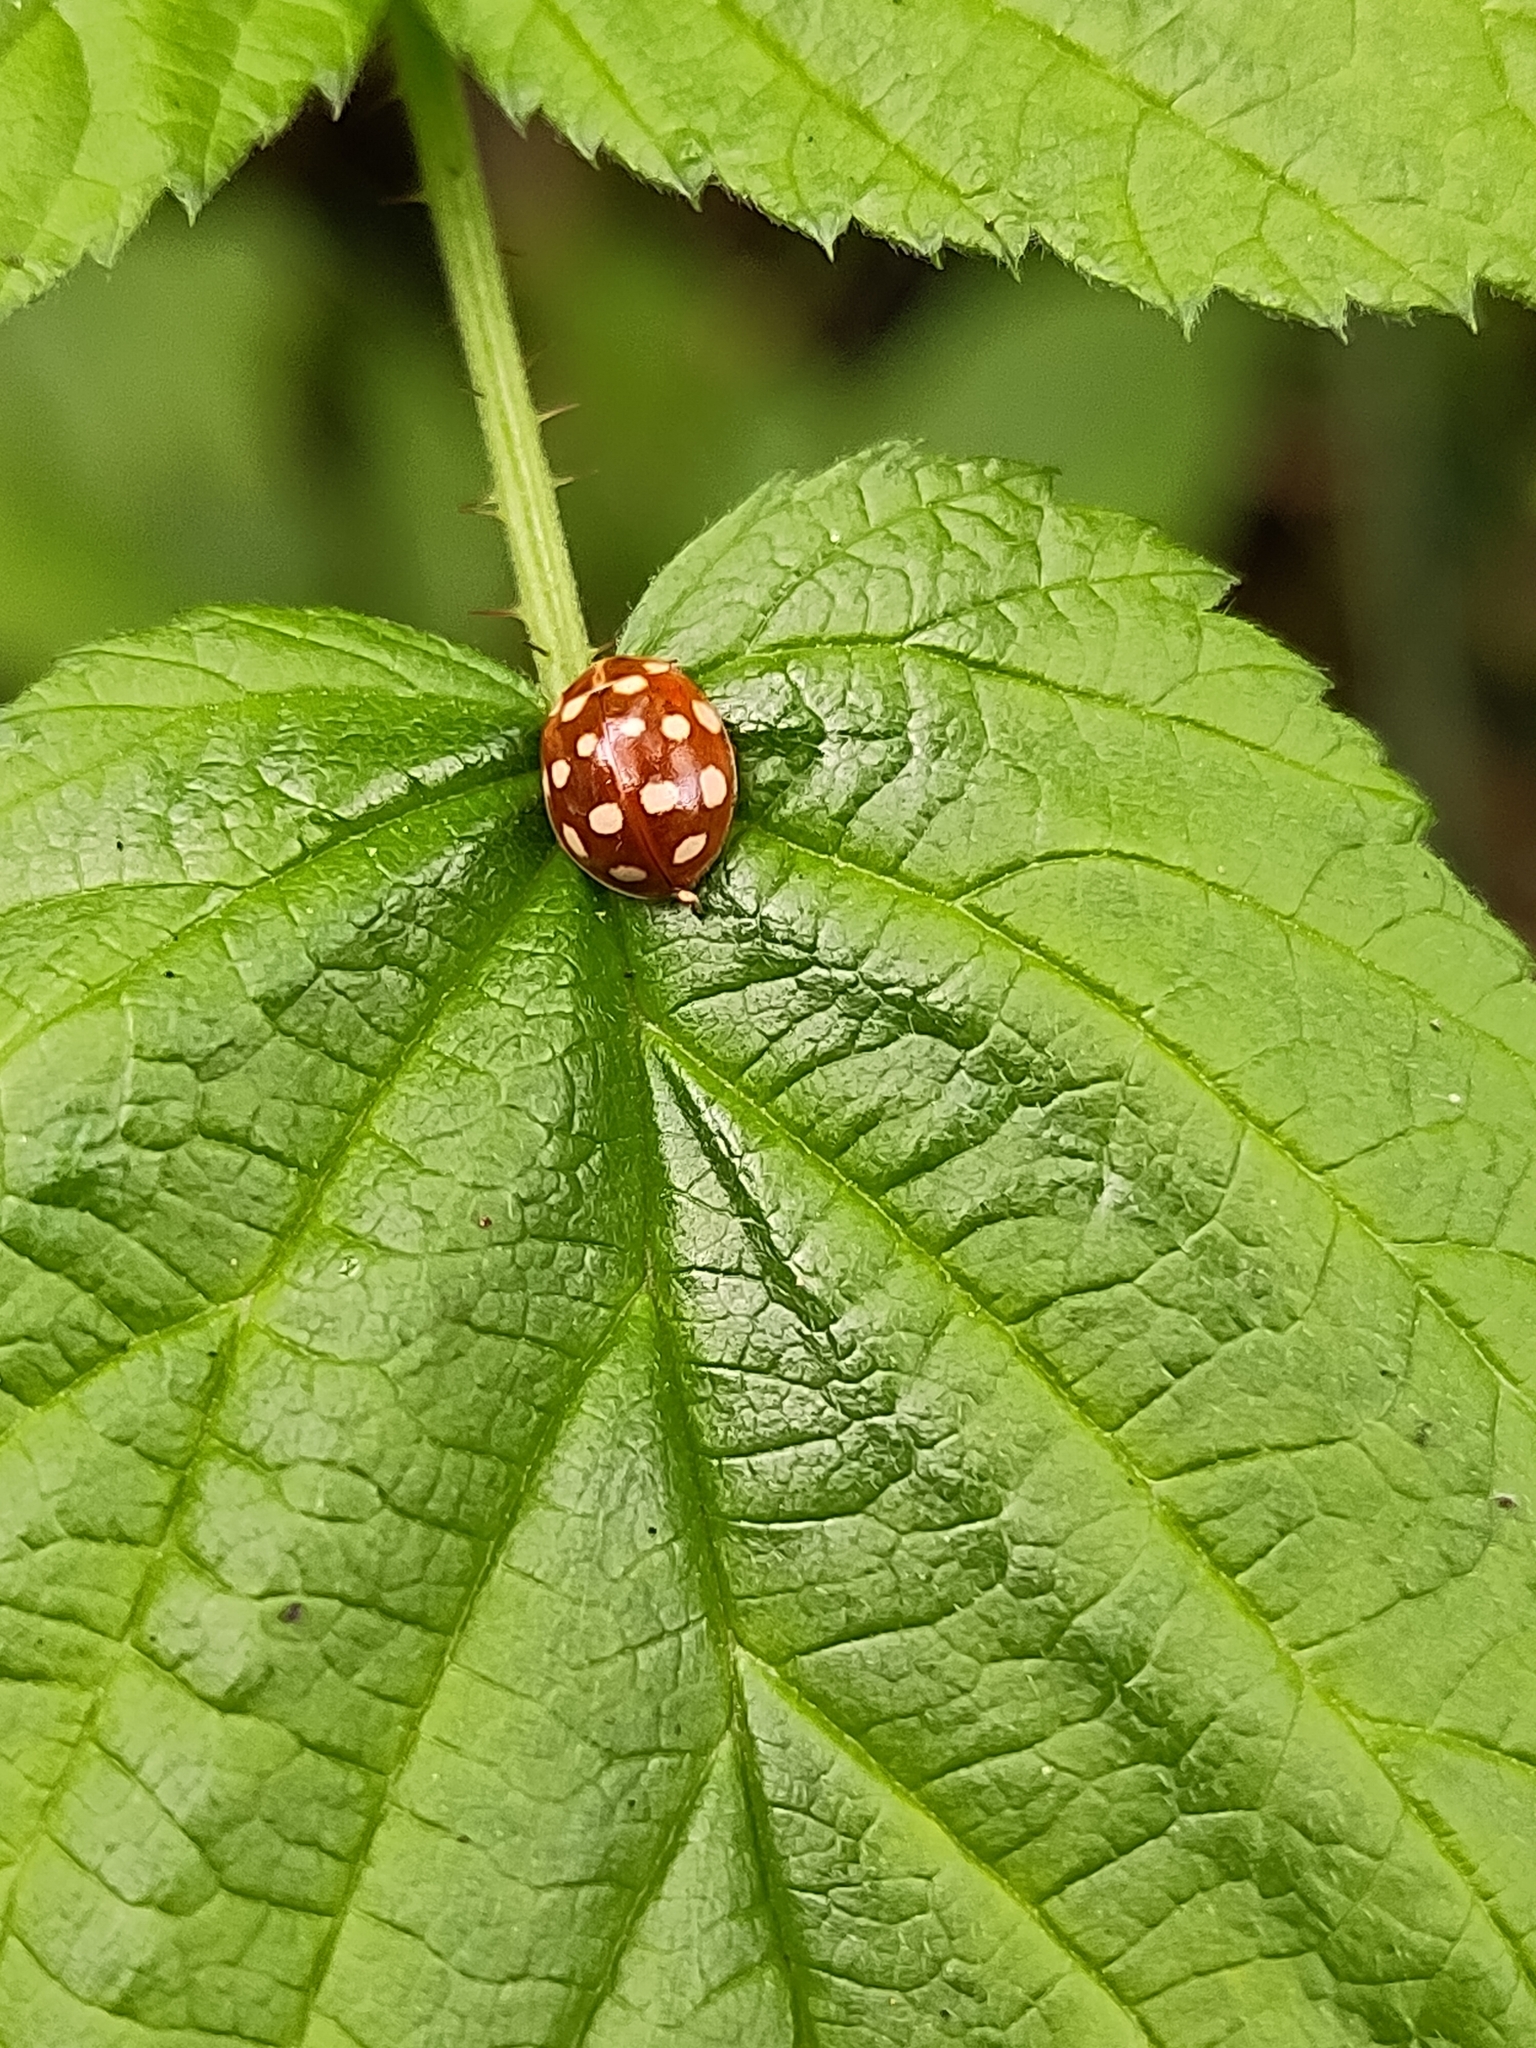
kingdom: Animalia
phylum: Arthropoda
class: Insecta
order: Coleoptera
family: Coccinellidae
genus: Calvia
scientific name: Calvia quatuordecimguttata
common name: Cream-spot ladybird
